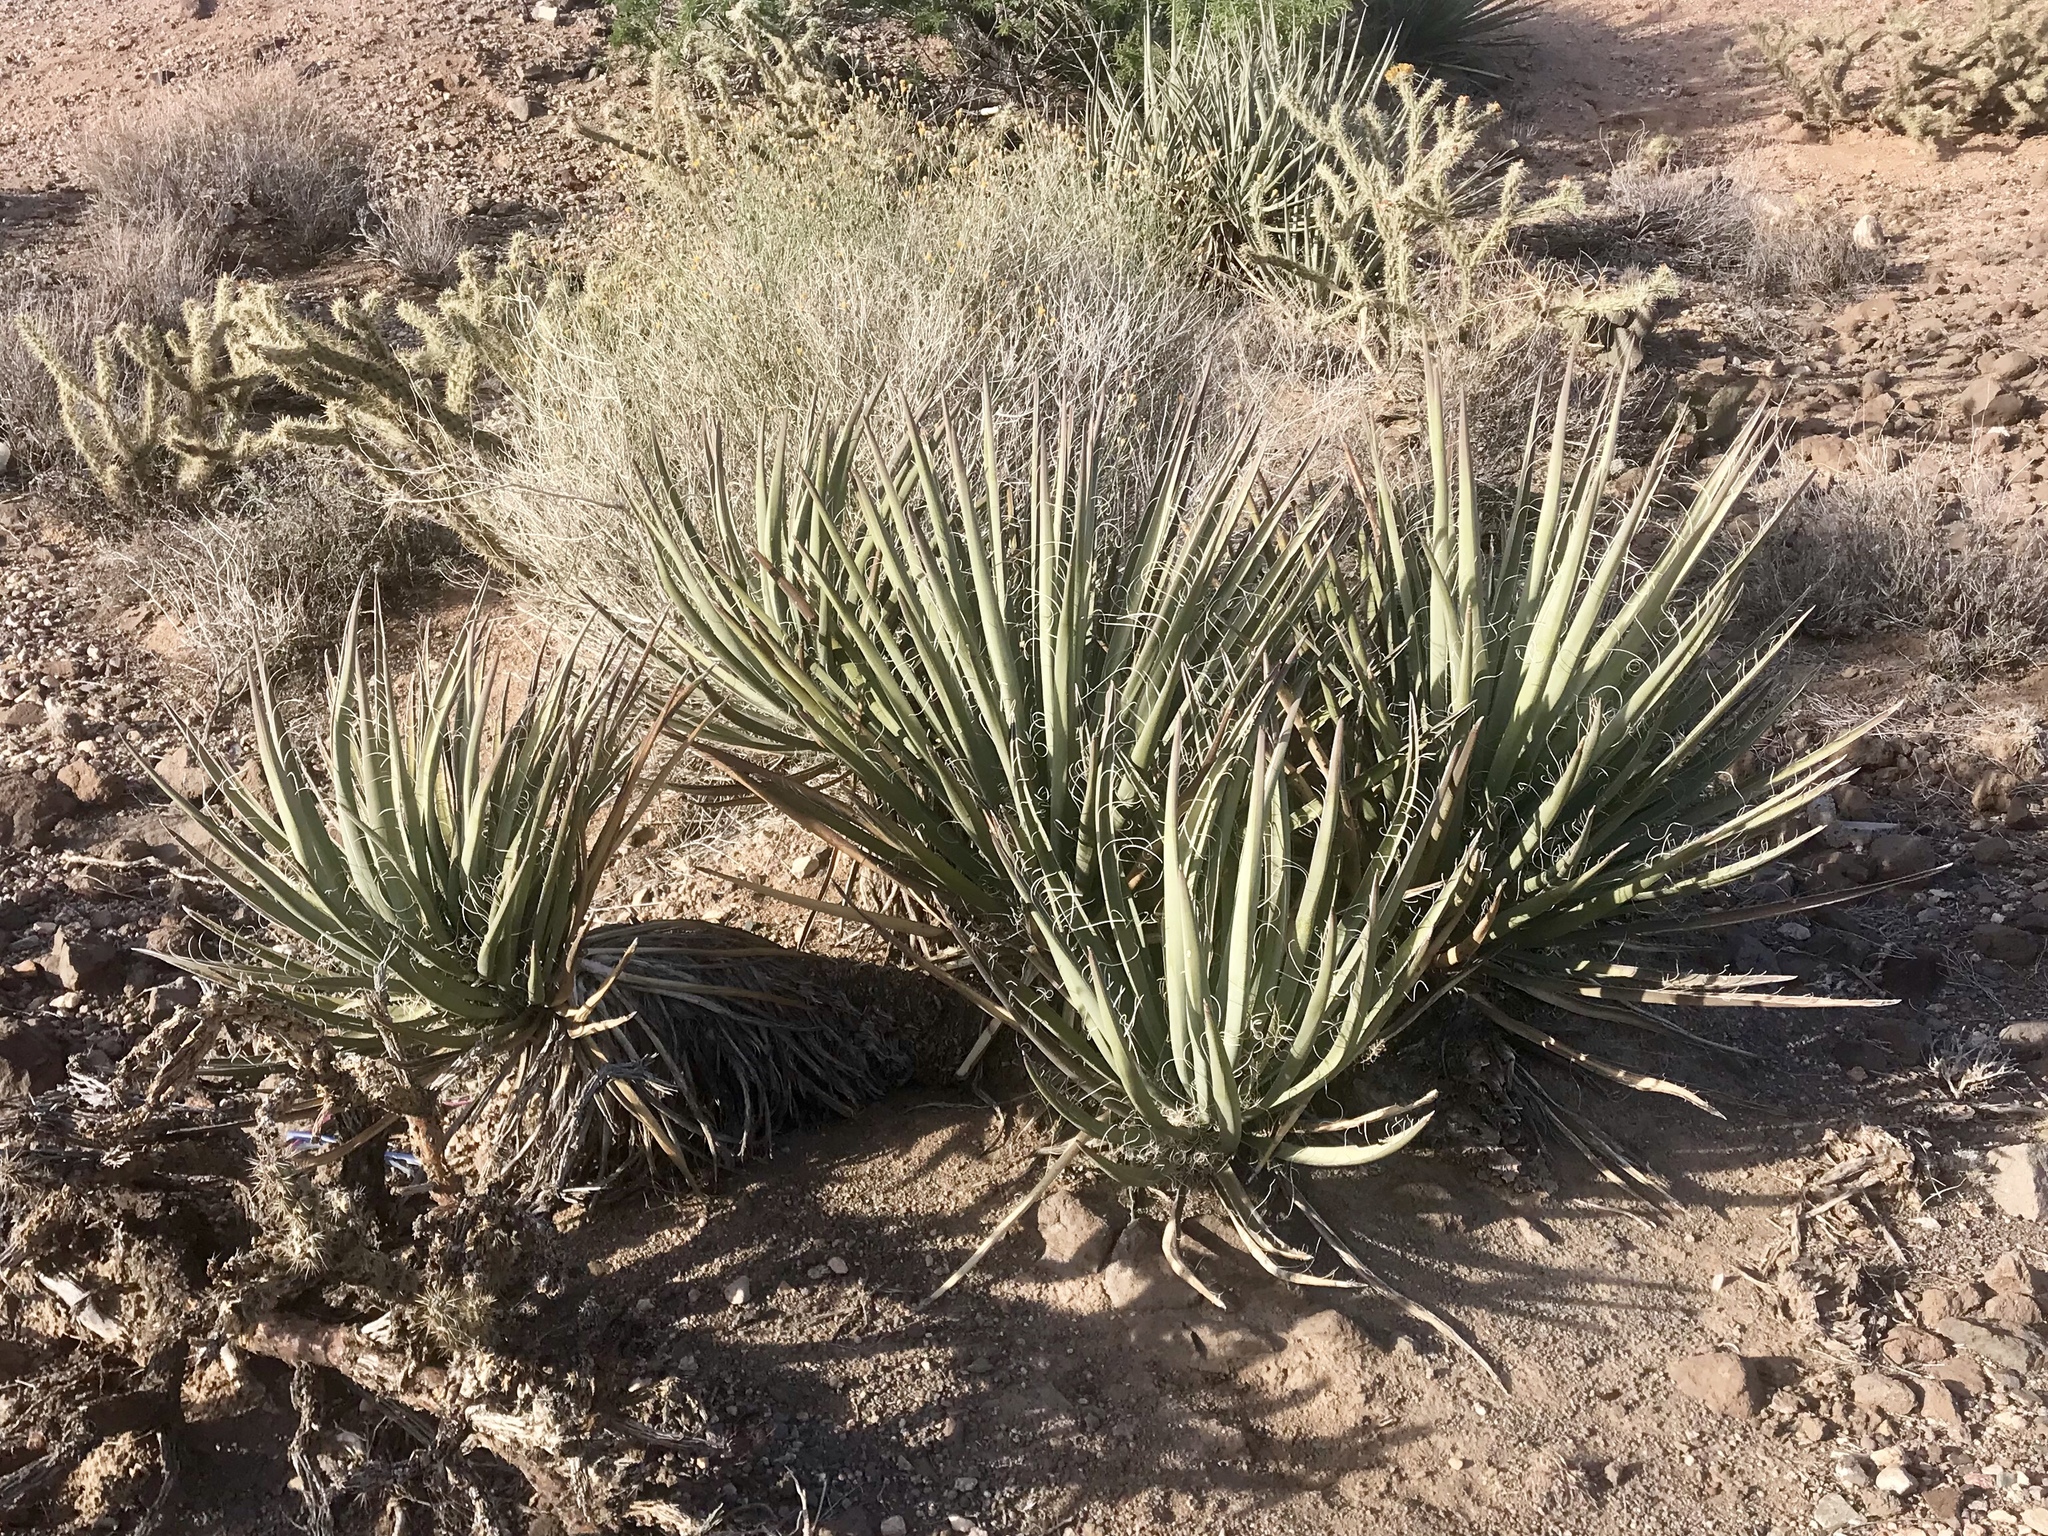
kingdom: Plantae
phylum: Tracheophyta
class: Liliopsida
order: Asparagales
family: Asparagaceae
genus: Yucca
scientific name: Yucca baccata
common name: Banana yucca
